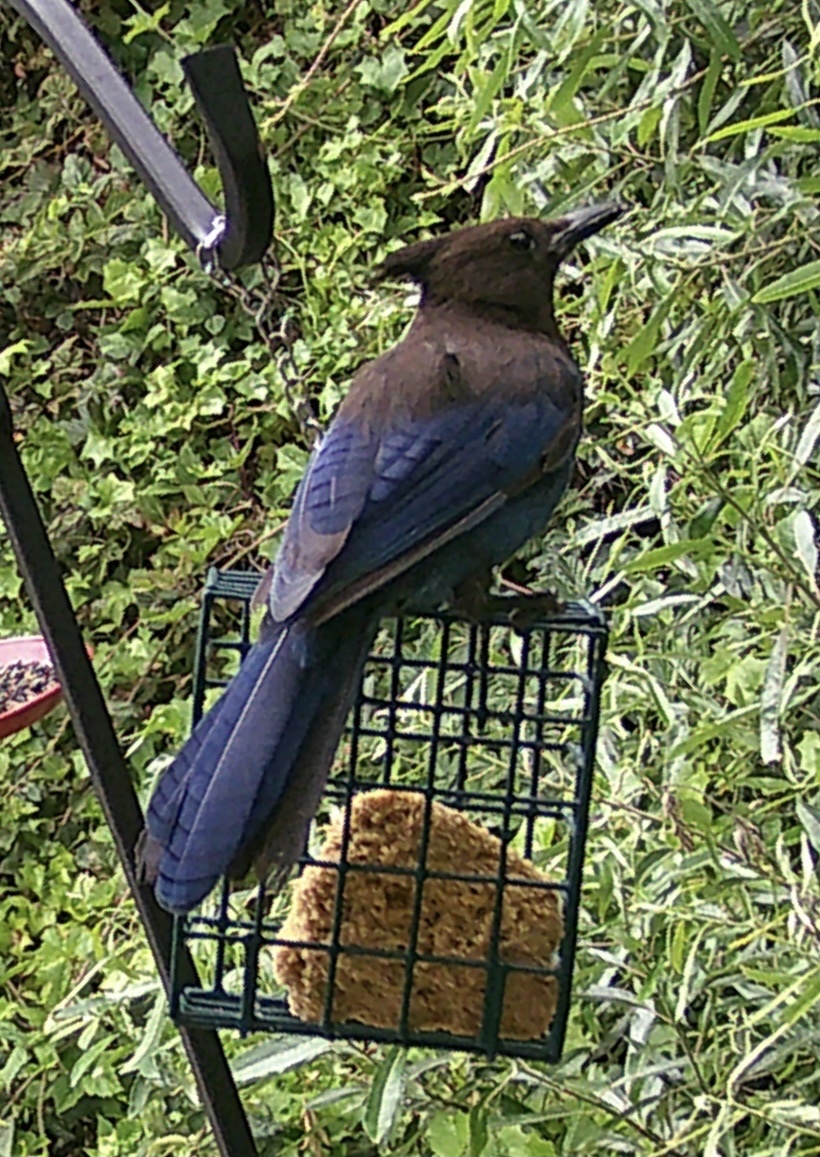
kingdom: Animalia
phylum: Chordata
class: Aves
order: Passeriformes
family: Corvidae
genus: Cyanocitta
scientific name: Cyanocitta stelleri
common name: Steller's jay
